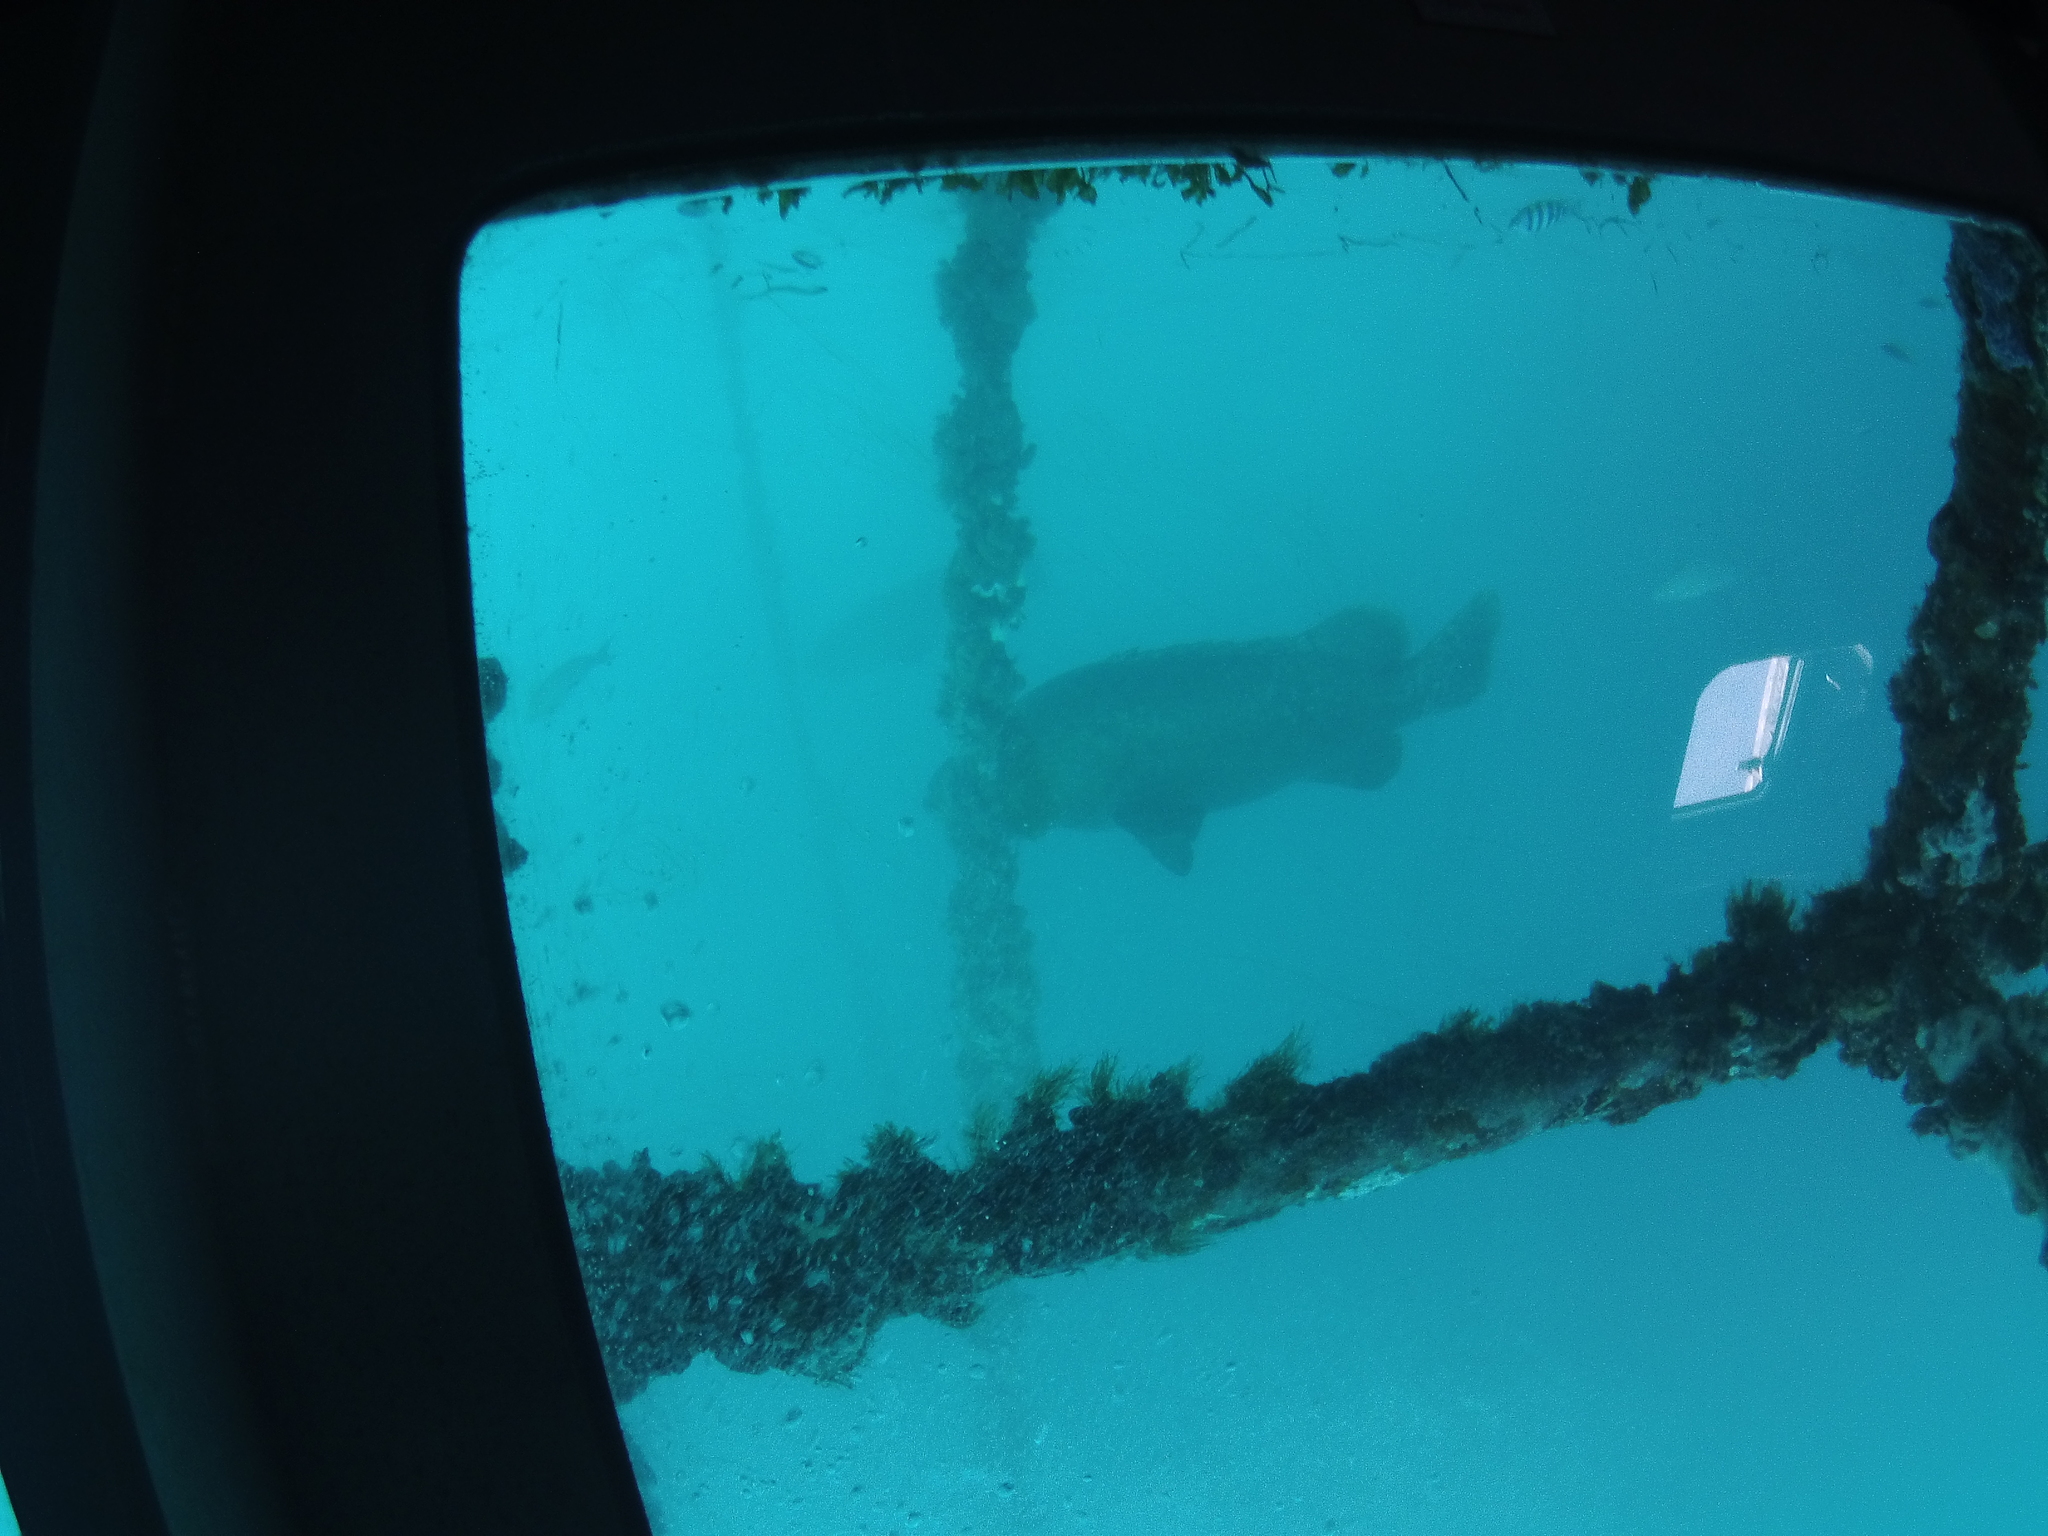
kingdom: Animalia
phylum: Chordata
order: Perciformes
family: Serranidae
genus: Epinephelus
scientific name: Epinephelus lanceolatus
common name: Giant grouper
